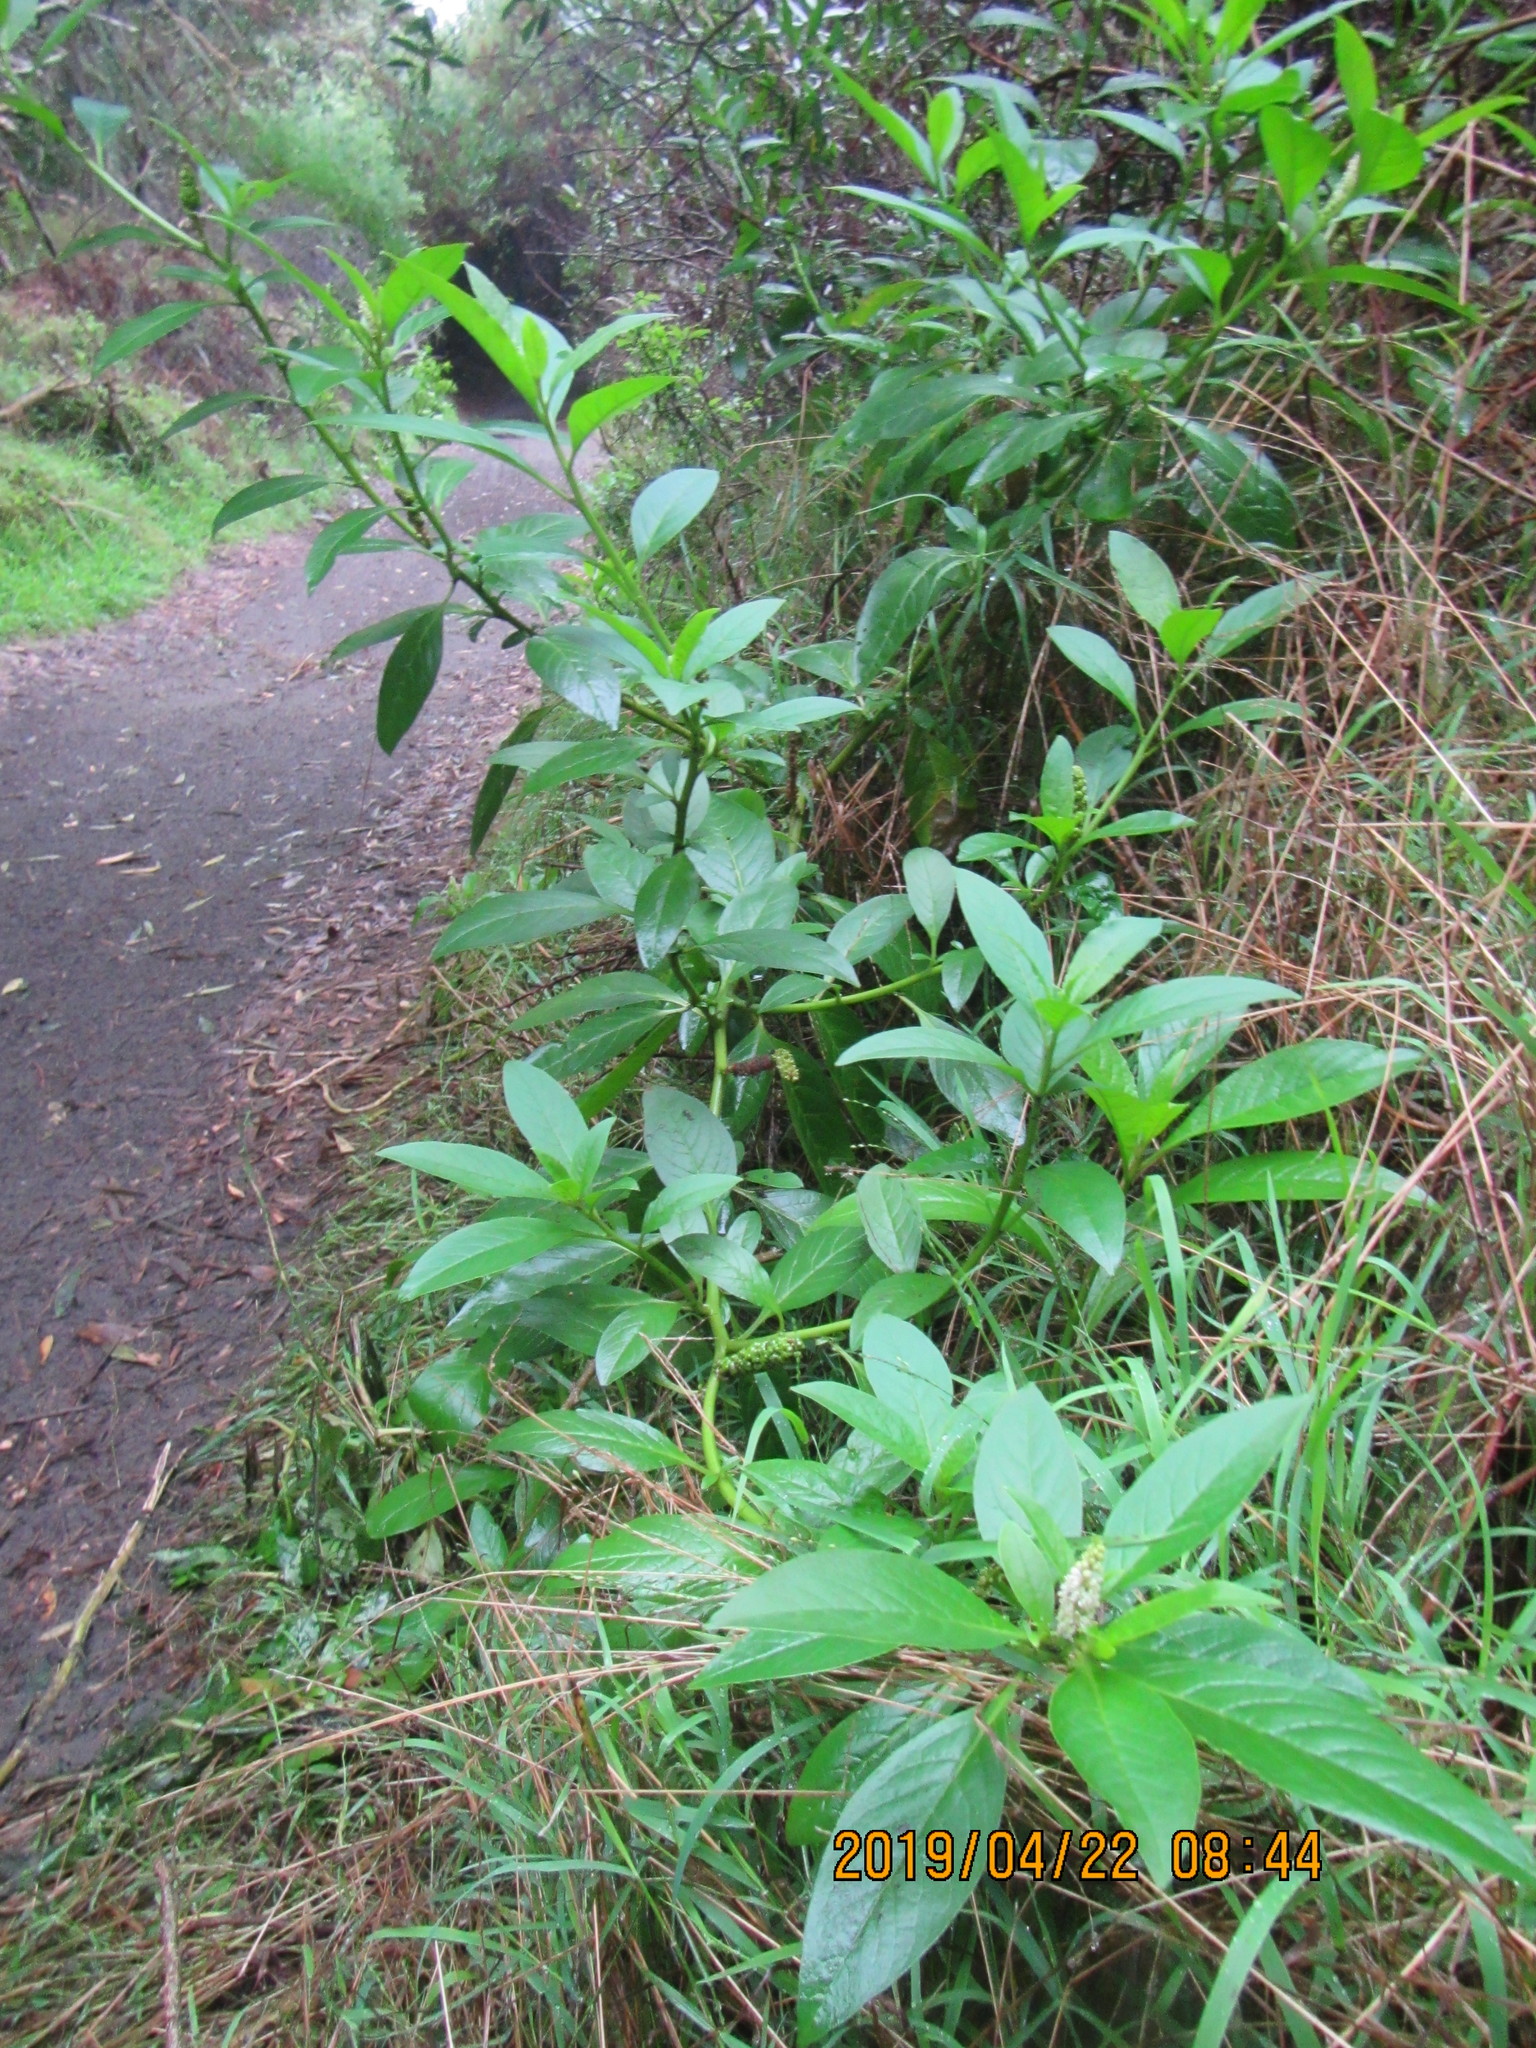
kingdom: Plantae
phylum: Tracheophyta
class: Magnoliopsida
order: Caryophyllales
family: Phytolaccaceae
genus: Phytolacca
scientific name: Phytolacca icosandra
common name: Button pokeweed
